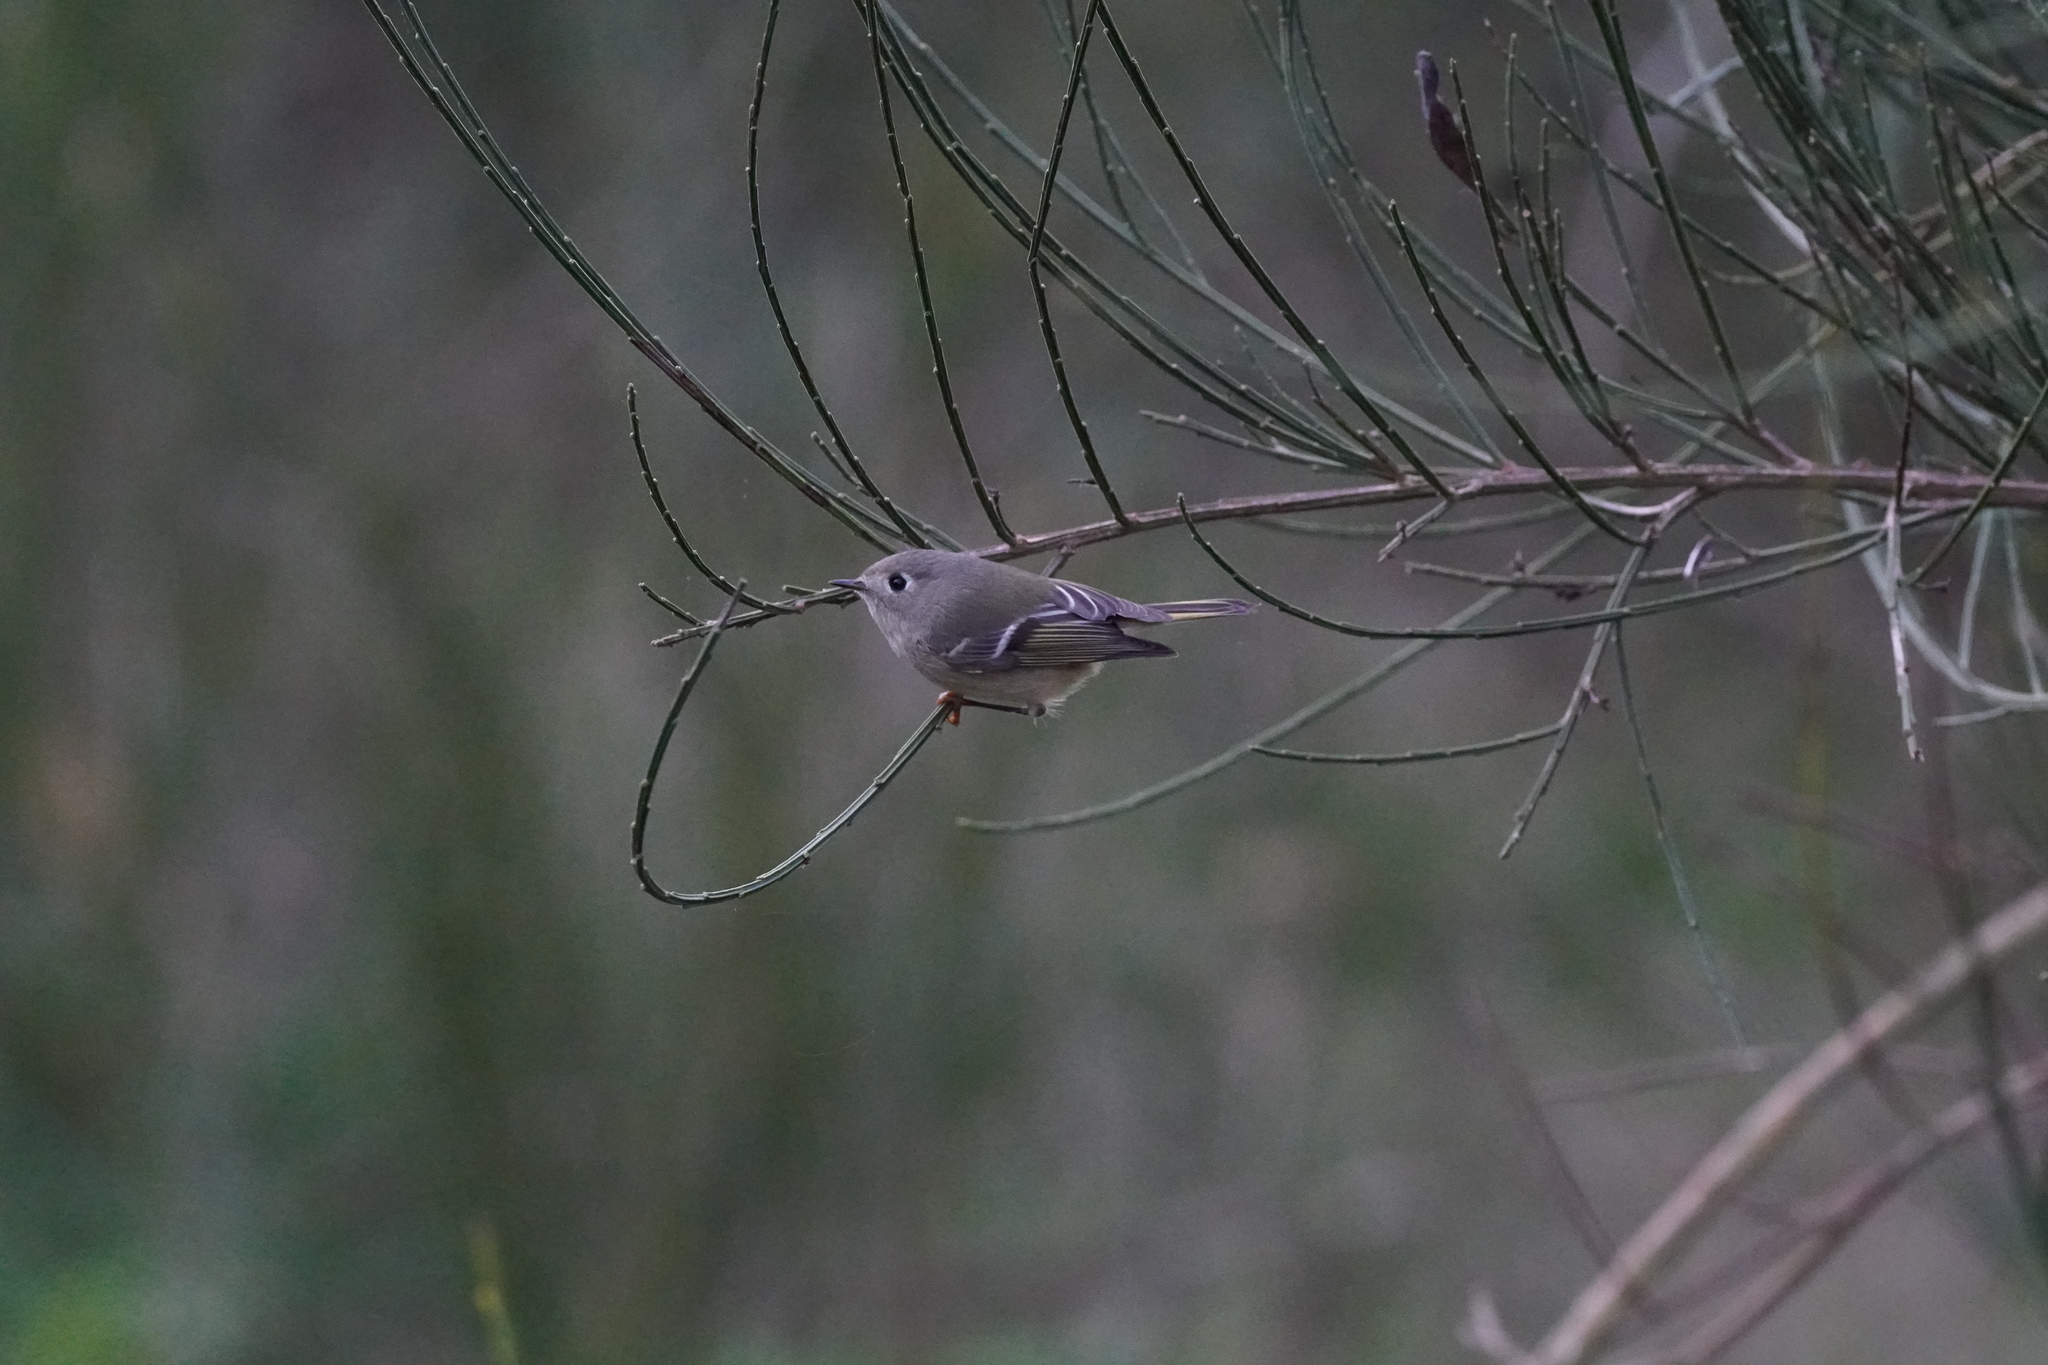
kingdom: Animalia
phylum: Chordata
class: Aves
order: Passeriformes
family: Regulidae
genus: Regulus
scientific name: Regulus calendula
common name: Ruby-crowned kinglet
